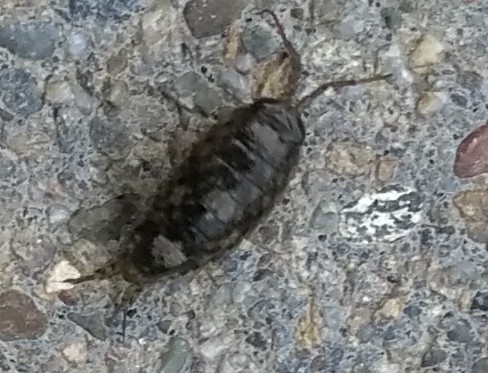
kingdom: Animalia
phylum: Arthropoda
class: Malacostraca
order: Isopoda
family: Ligiidae
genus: Ligia
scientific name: Ligia occidentalis
